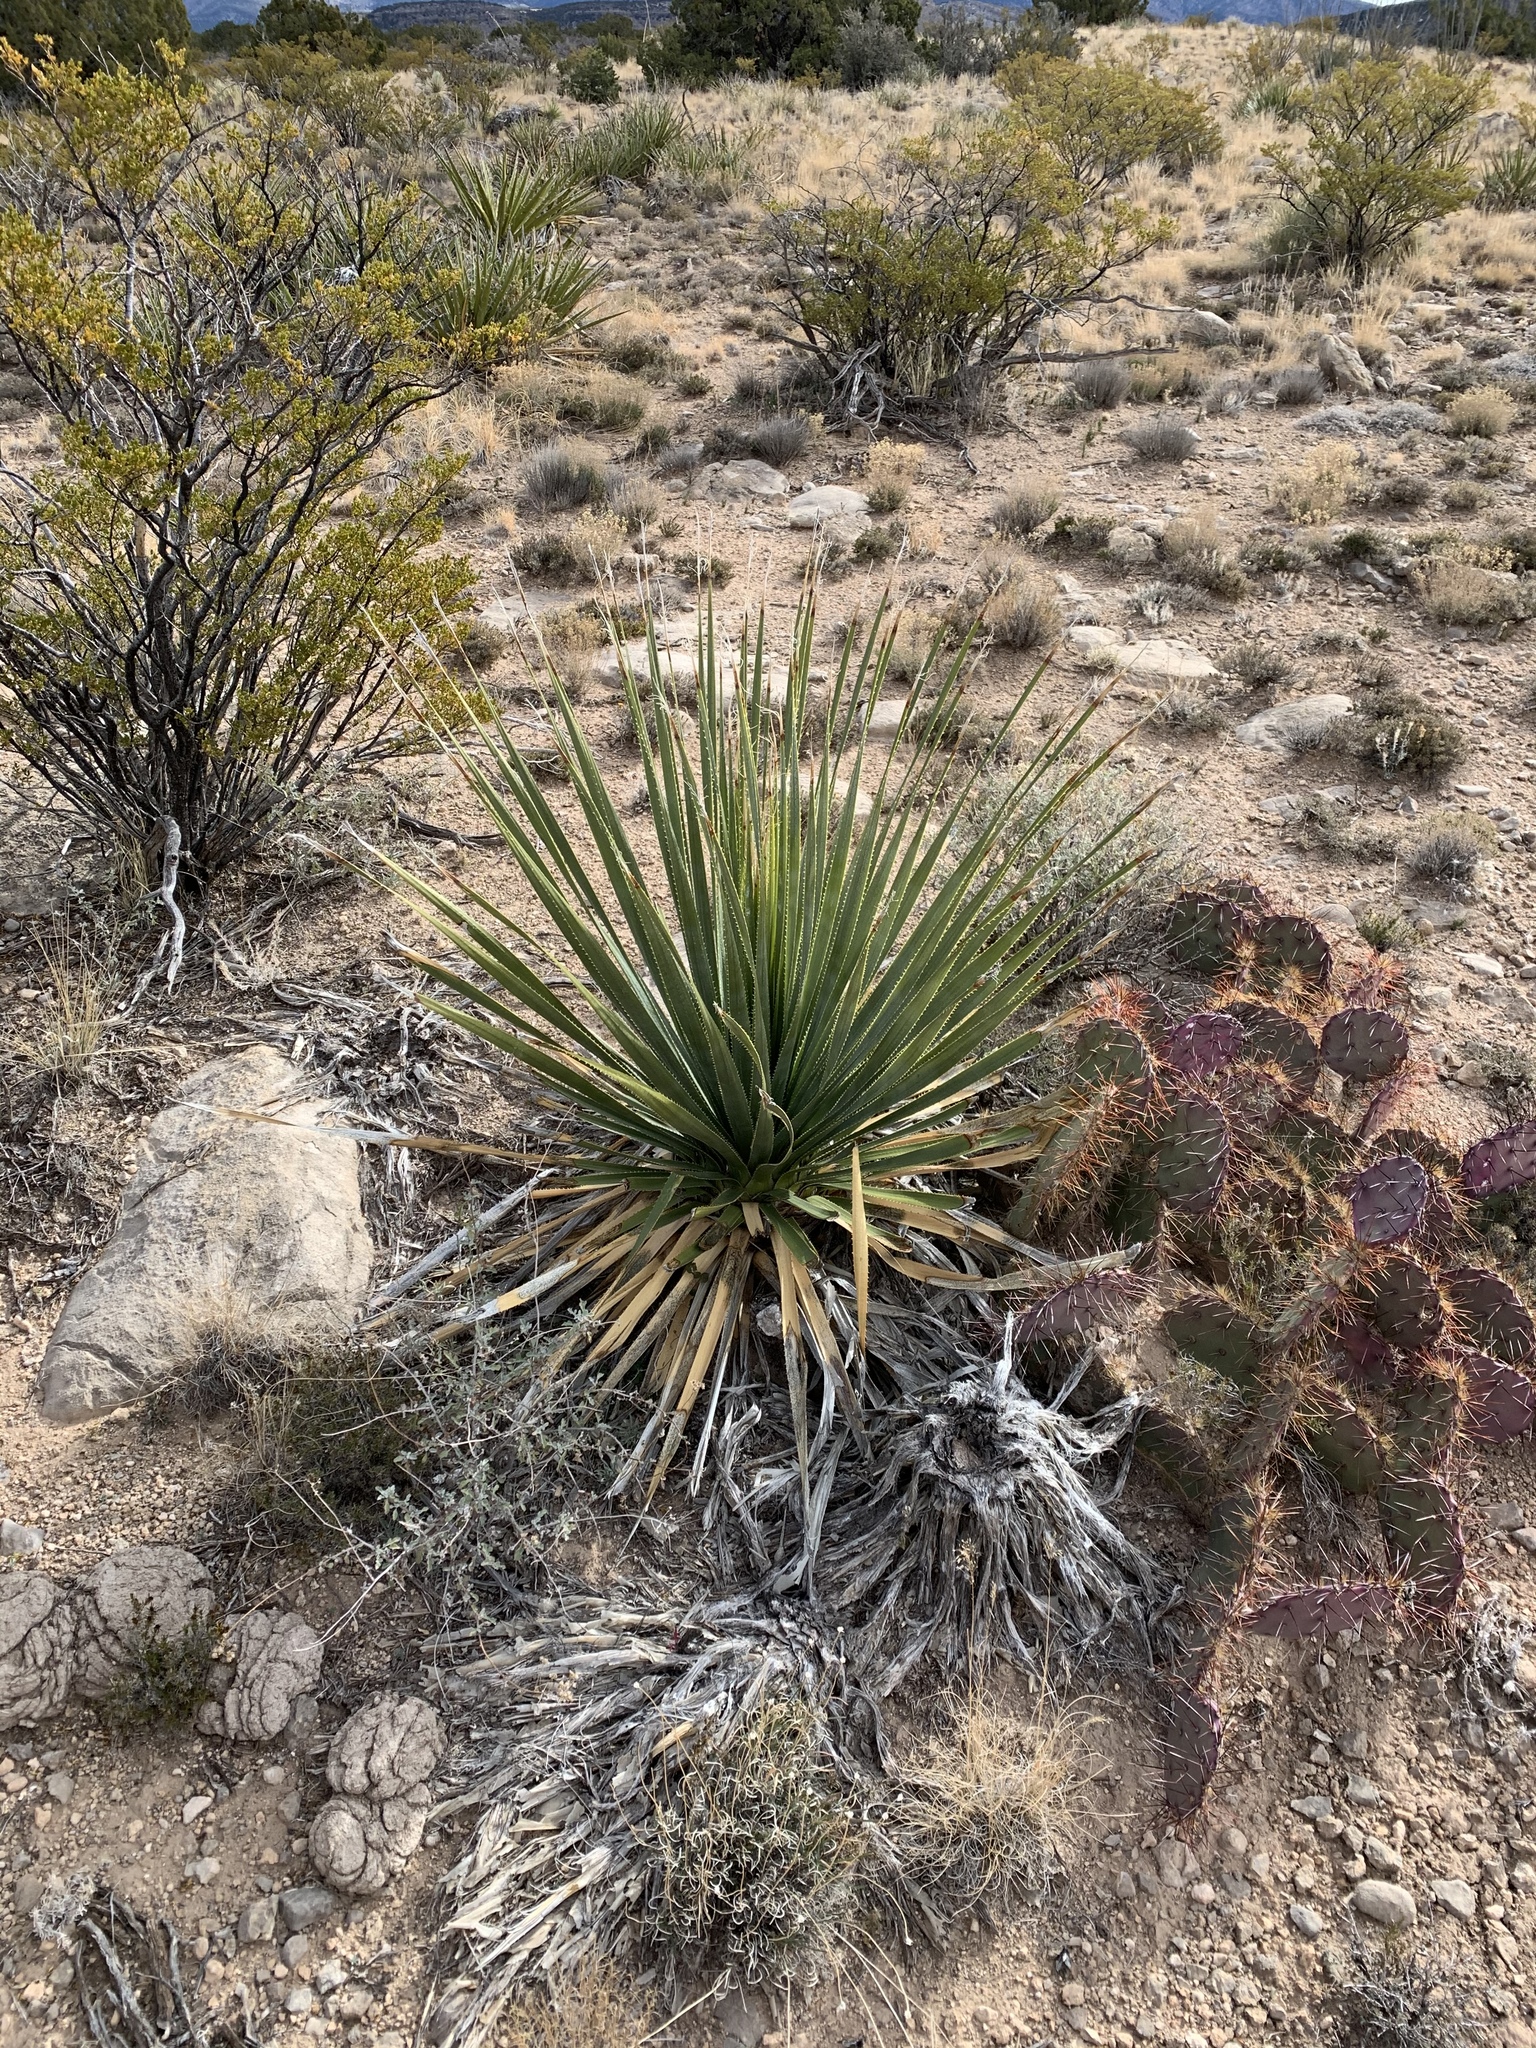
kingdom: Plantae
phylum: Tracheophyta
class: Liliopsida
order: Asparagales
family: Asparagaceae
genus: Dasylirion
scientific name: Dasylirion wheeleri
